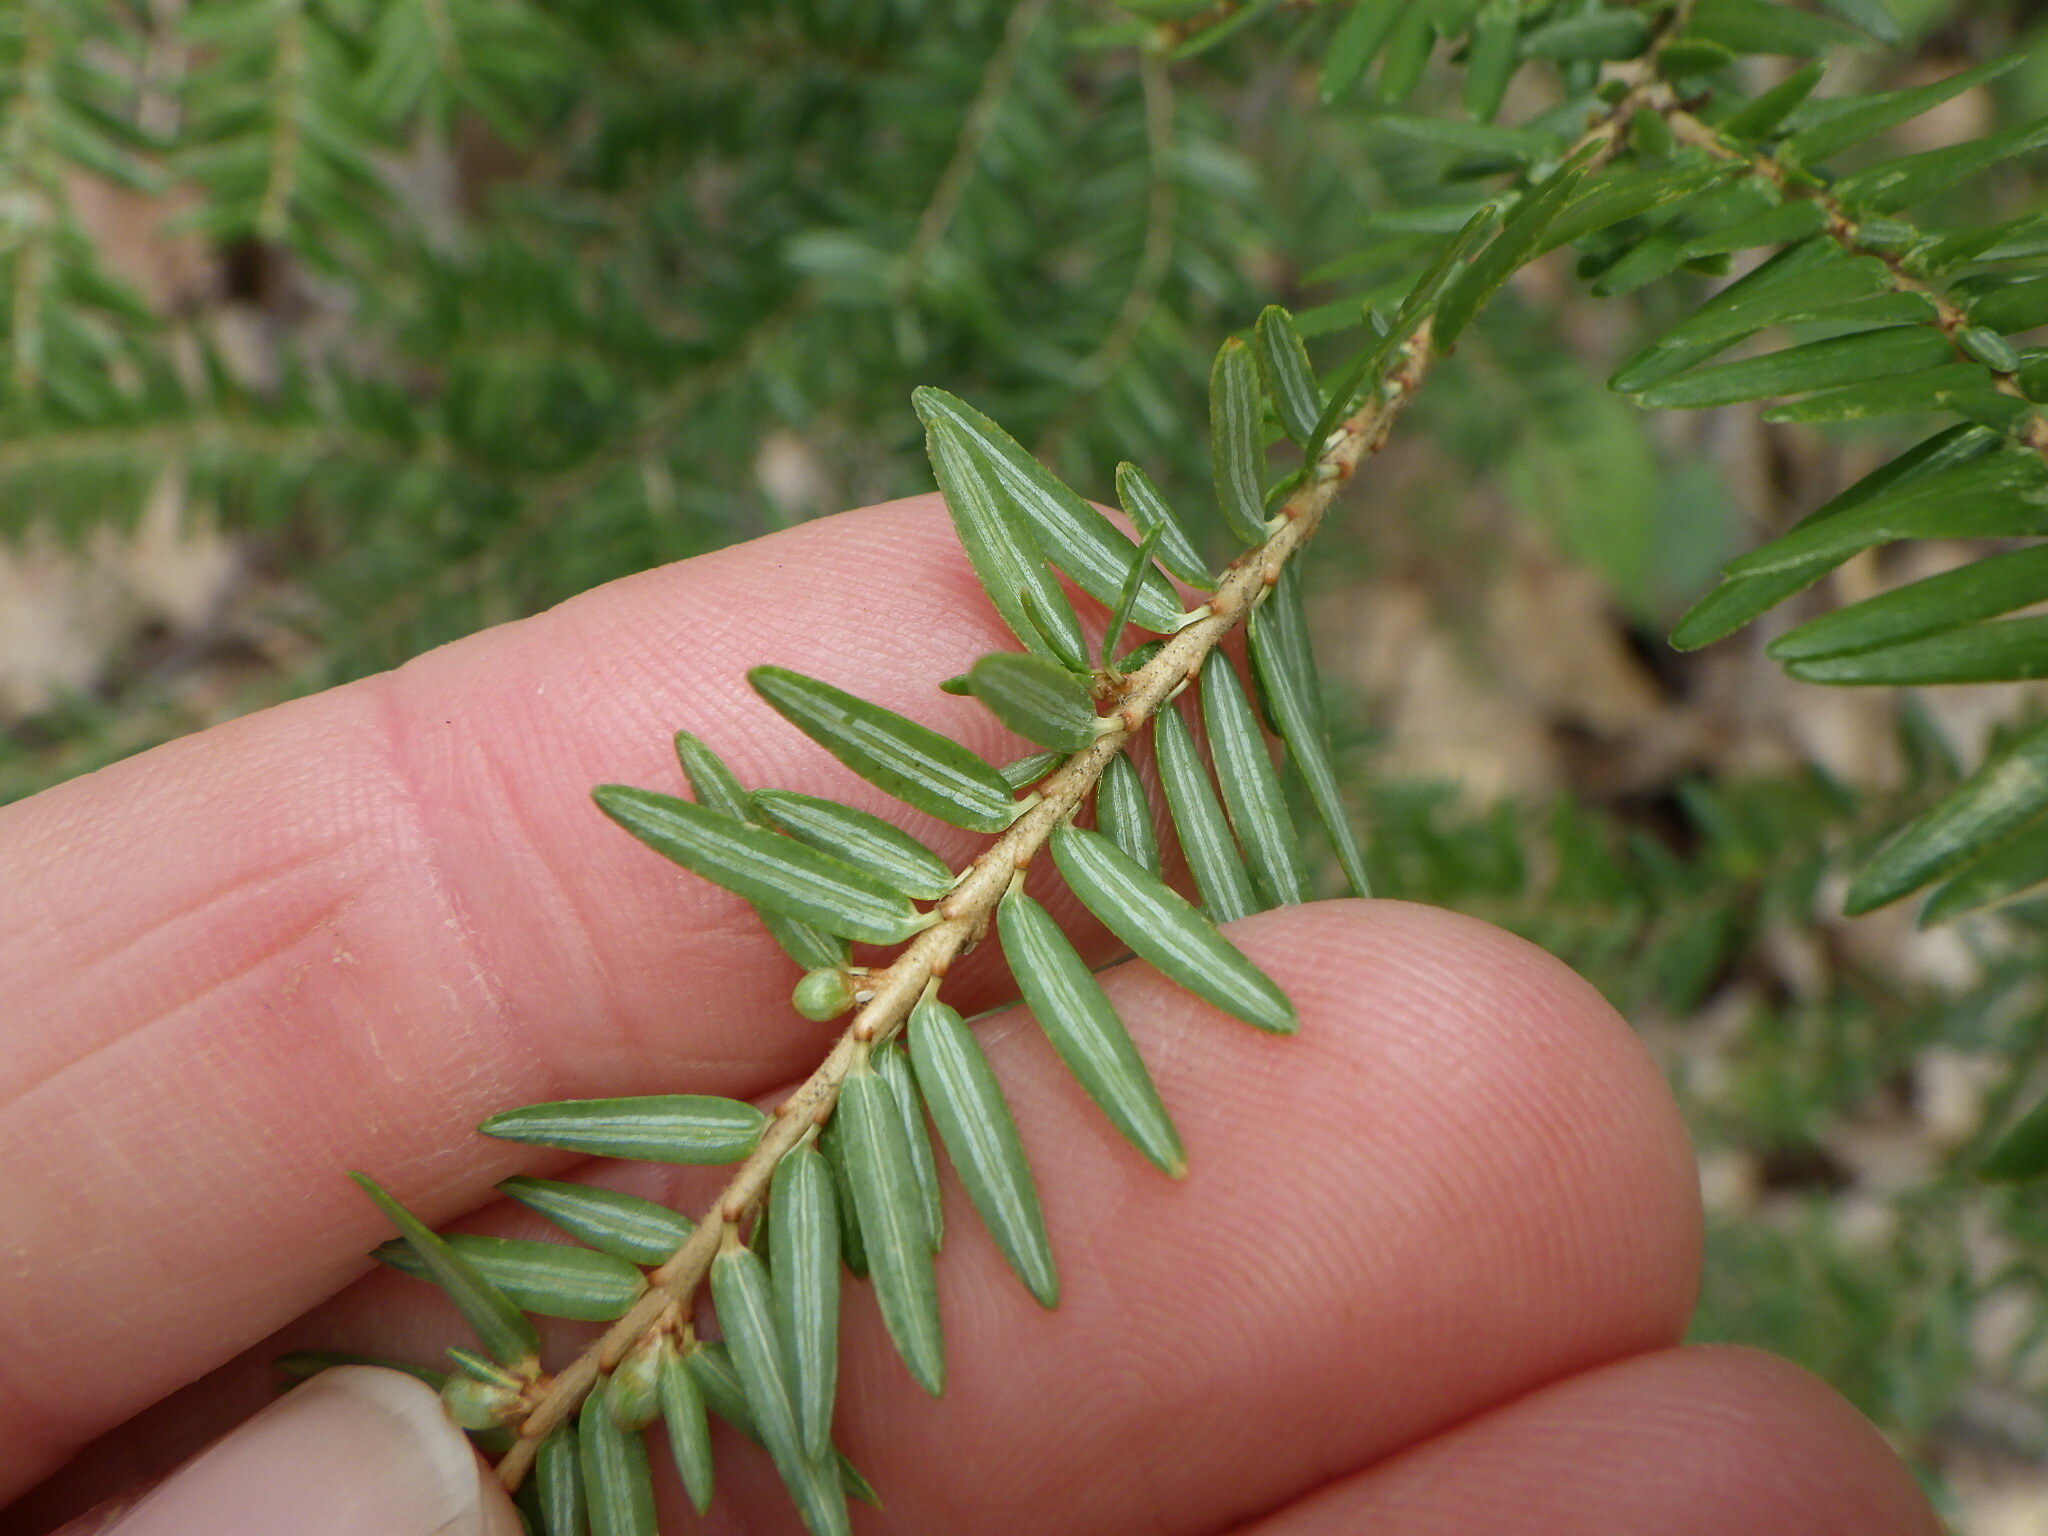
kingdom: Plantae
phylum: Tracheophyta
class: Pinopsida
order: Pinales
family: Pinaceae
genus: Tsuga
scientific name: Tsuga canadensis
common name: Eastern hemlock
